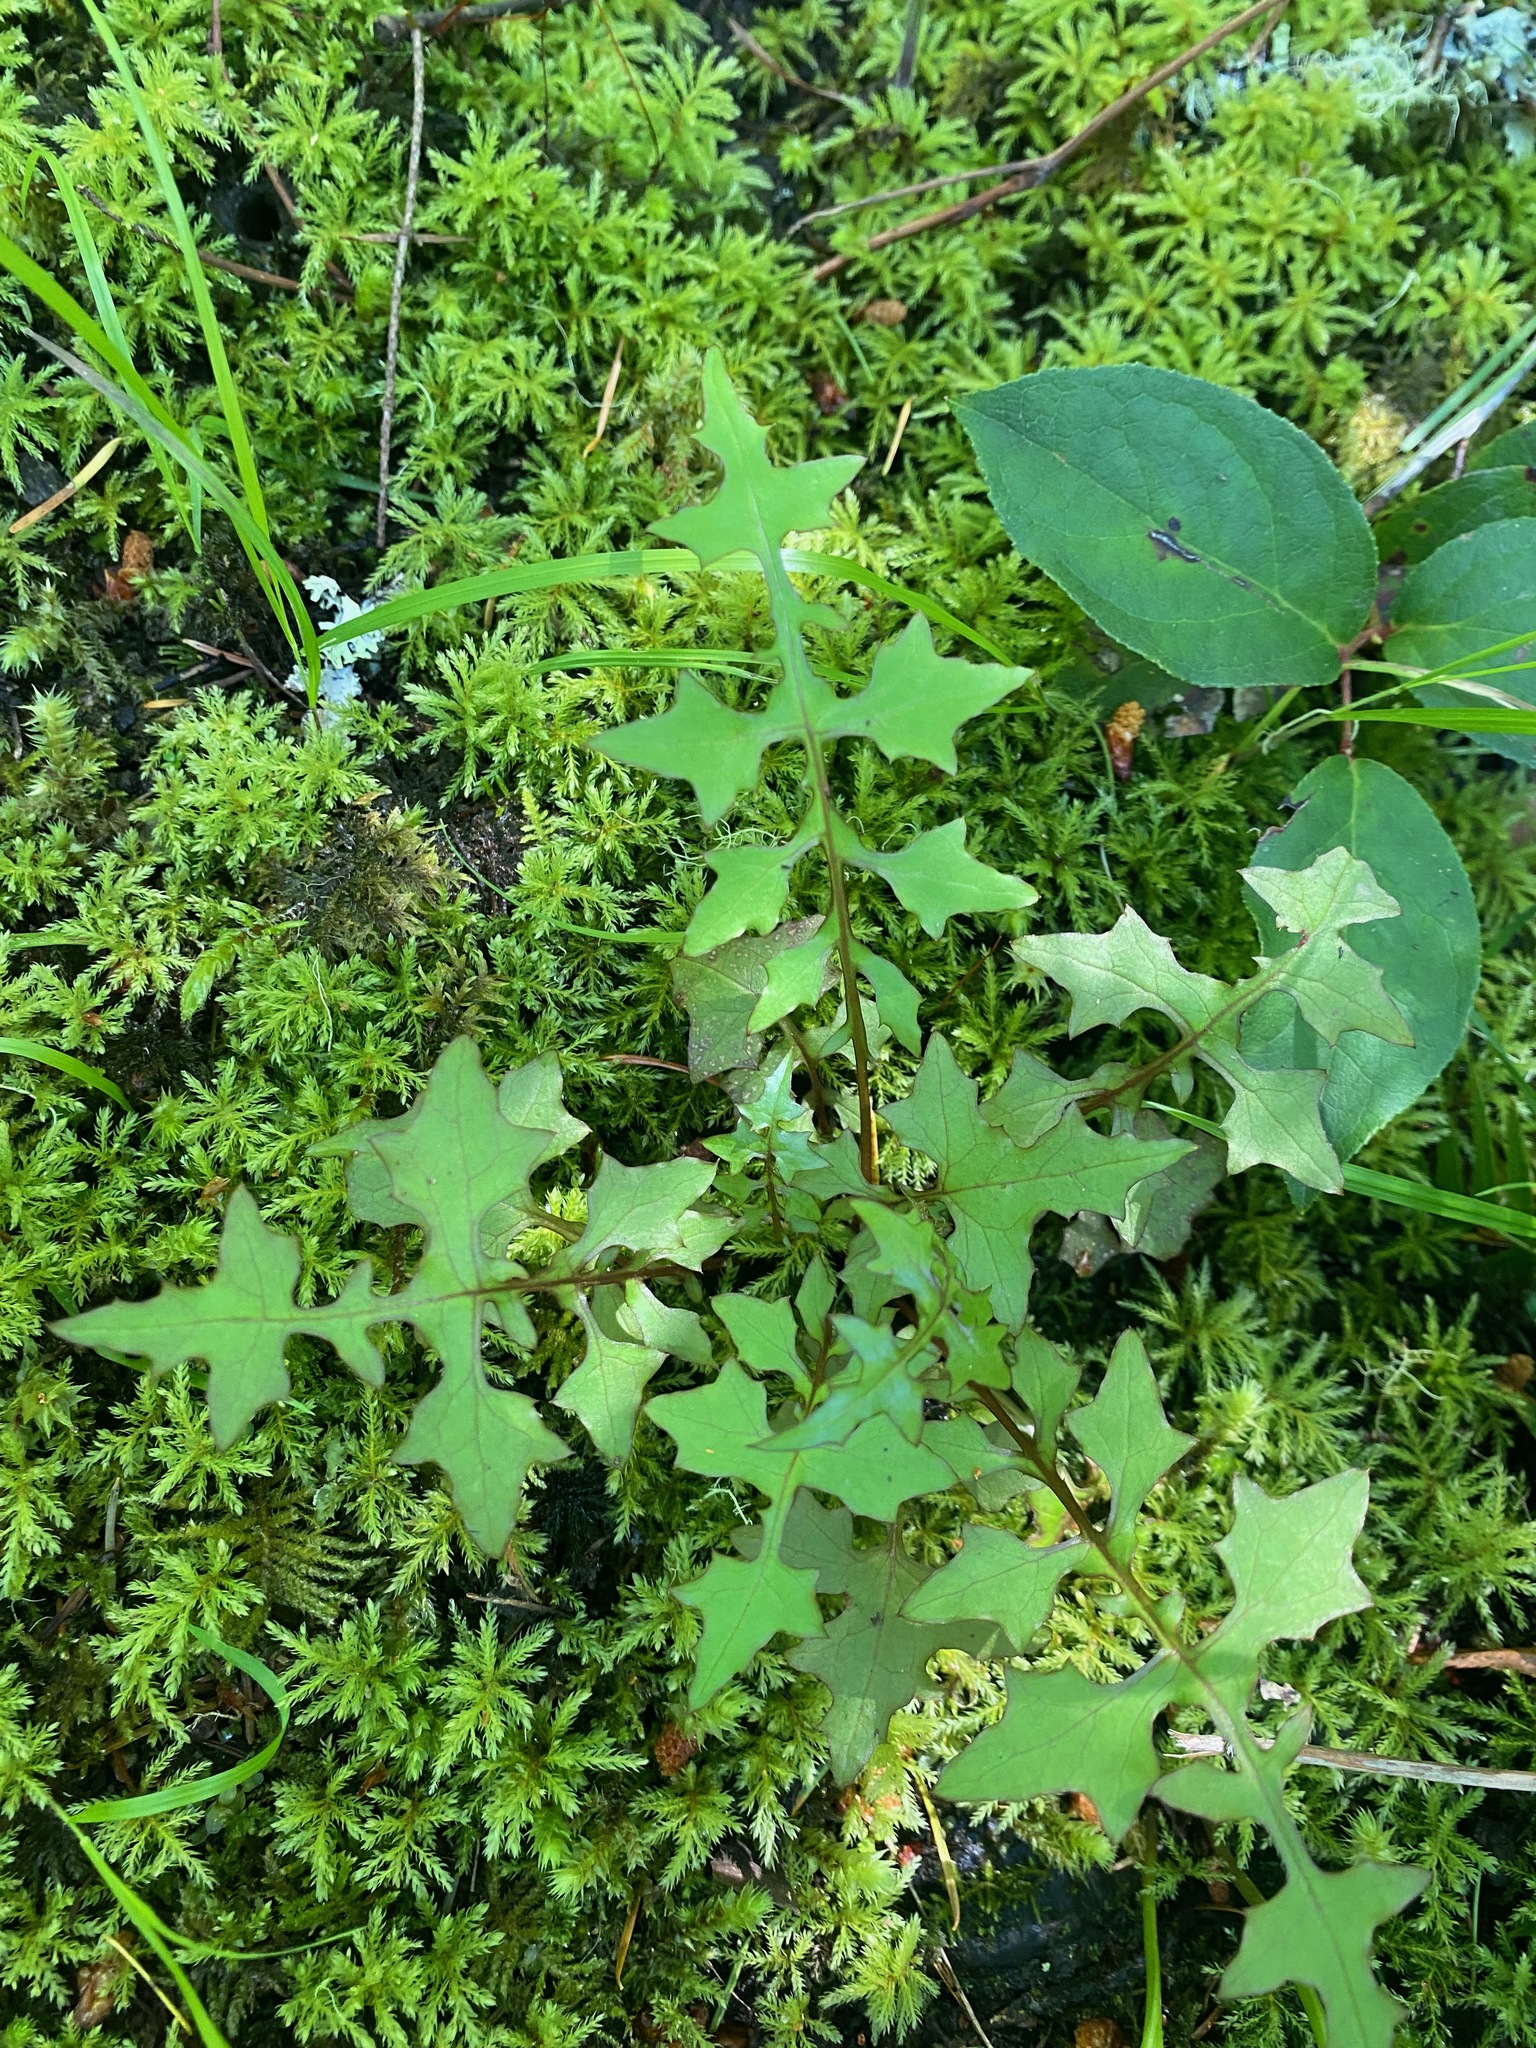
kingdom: Plantae
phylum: Tracheophyta
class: Magnoliopsida
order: Asterales
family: Asteraceae
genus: Mycelis
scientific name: Mycelis muralis
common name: Wall lettuce
